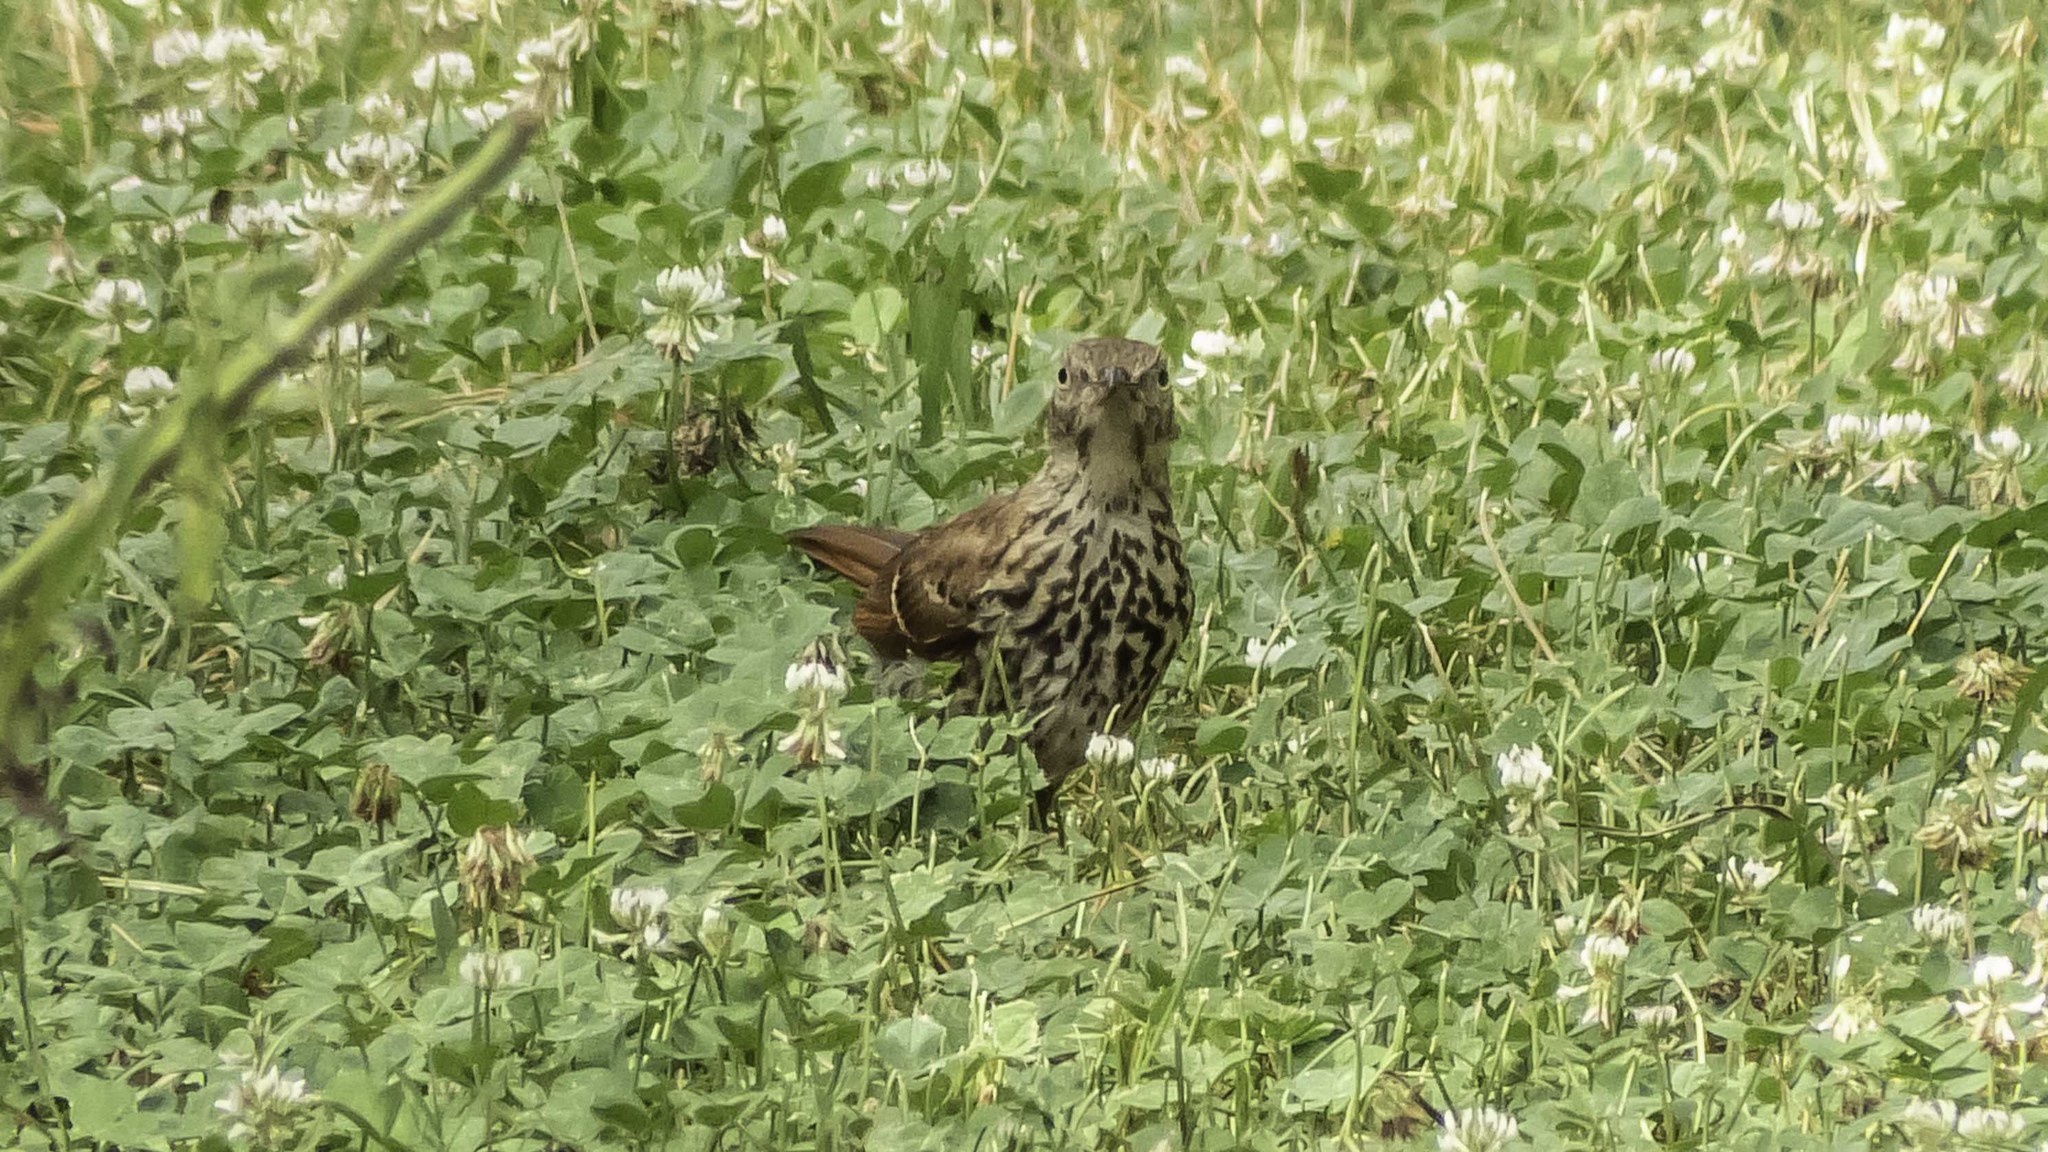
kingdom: Animalia
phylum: Chordata
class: Aves
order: Passeriformes
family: Mimidae
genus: Toxostoma
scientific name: Toxostoma rufum
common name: Brown thrasher
